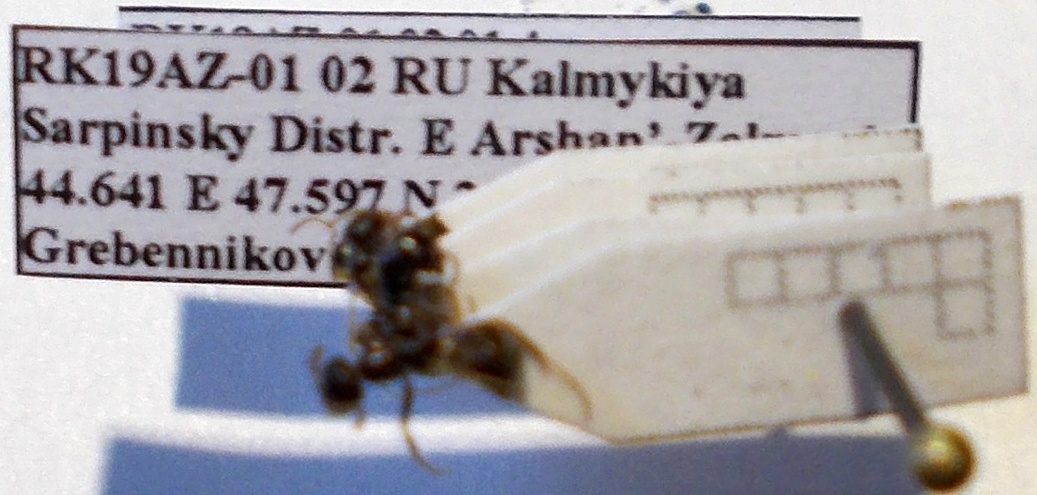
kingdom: Animalia
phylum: Arthropoda
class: Insecta
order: Hymenoptera
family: Formicidae
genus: Proformica
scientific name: Proformica epinotalis
